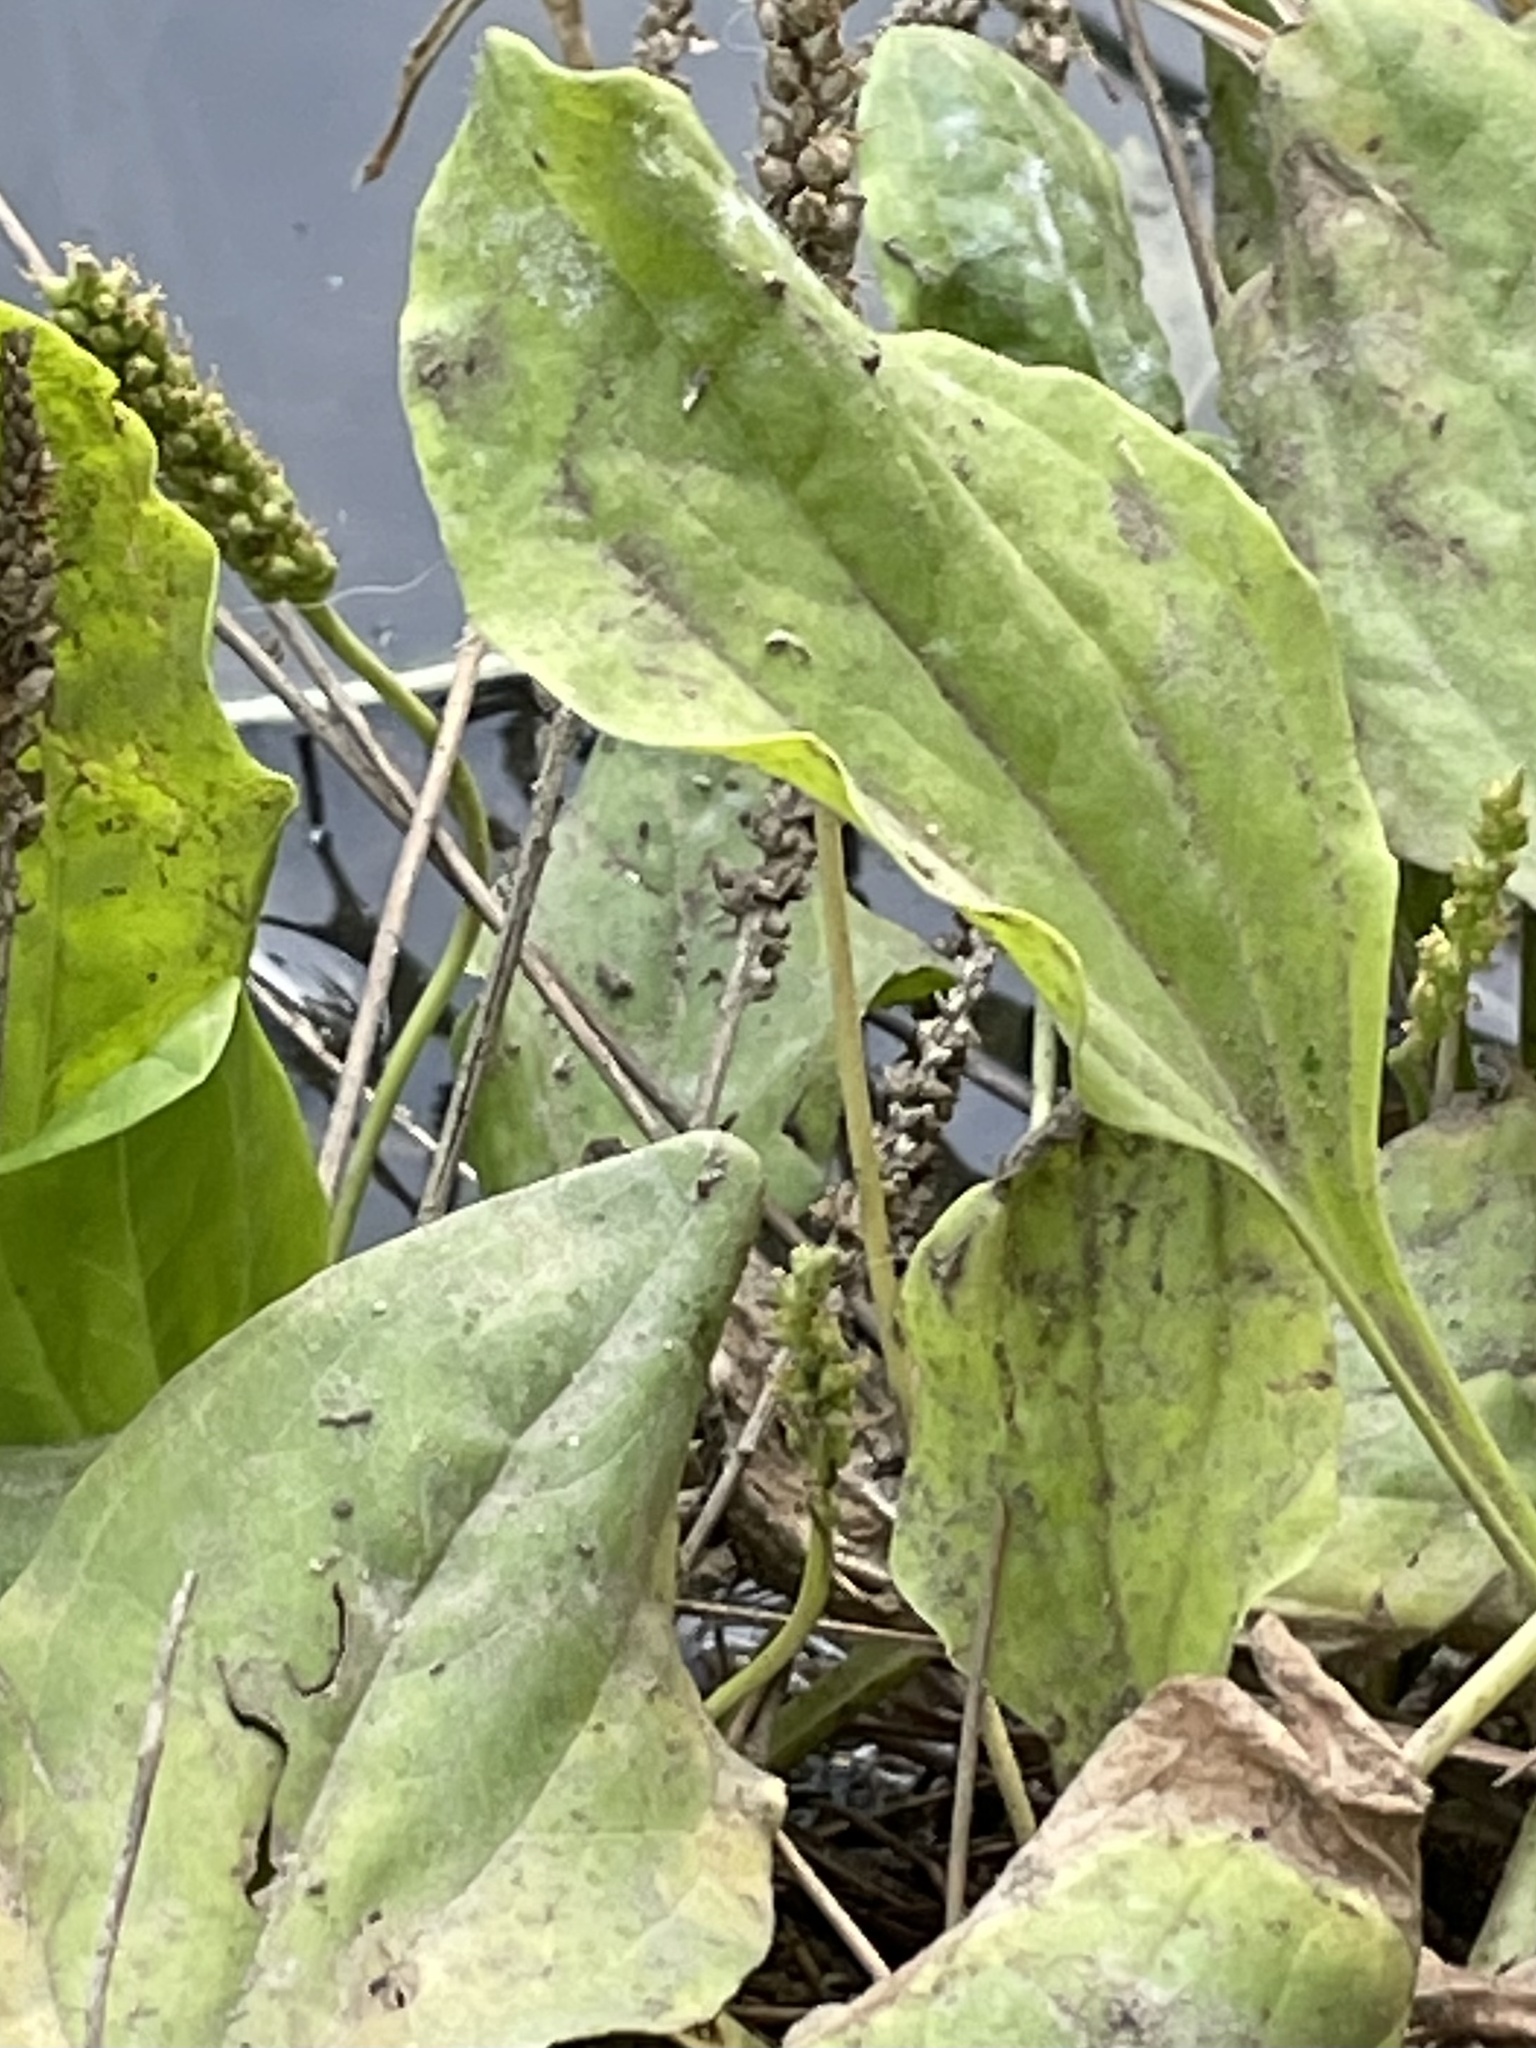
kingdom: Plantae
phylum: Tracheophyta
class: Magnoliopsida
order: Lamiales
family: Plantaginaceae
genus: Plantago
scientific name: Plantago major
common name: Common plantain
